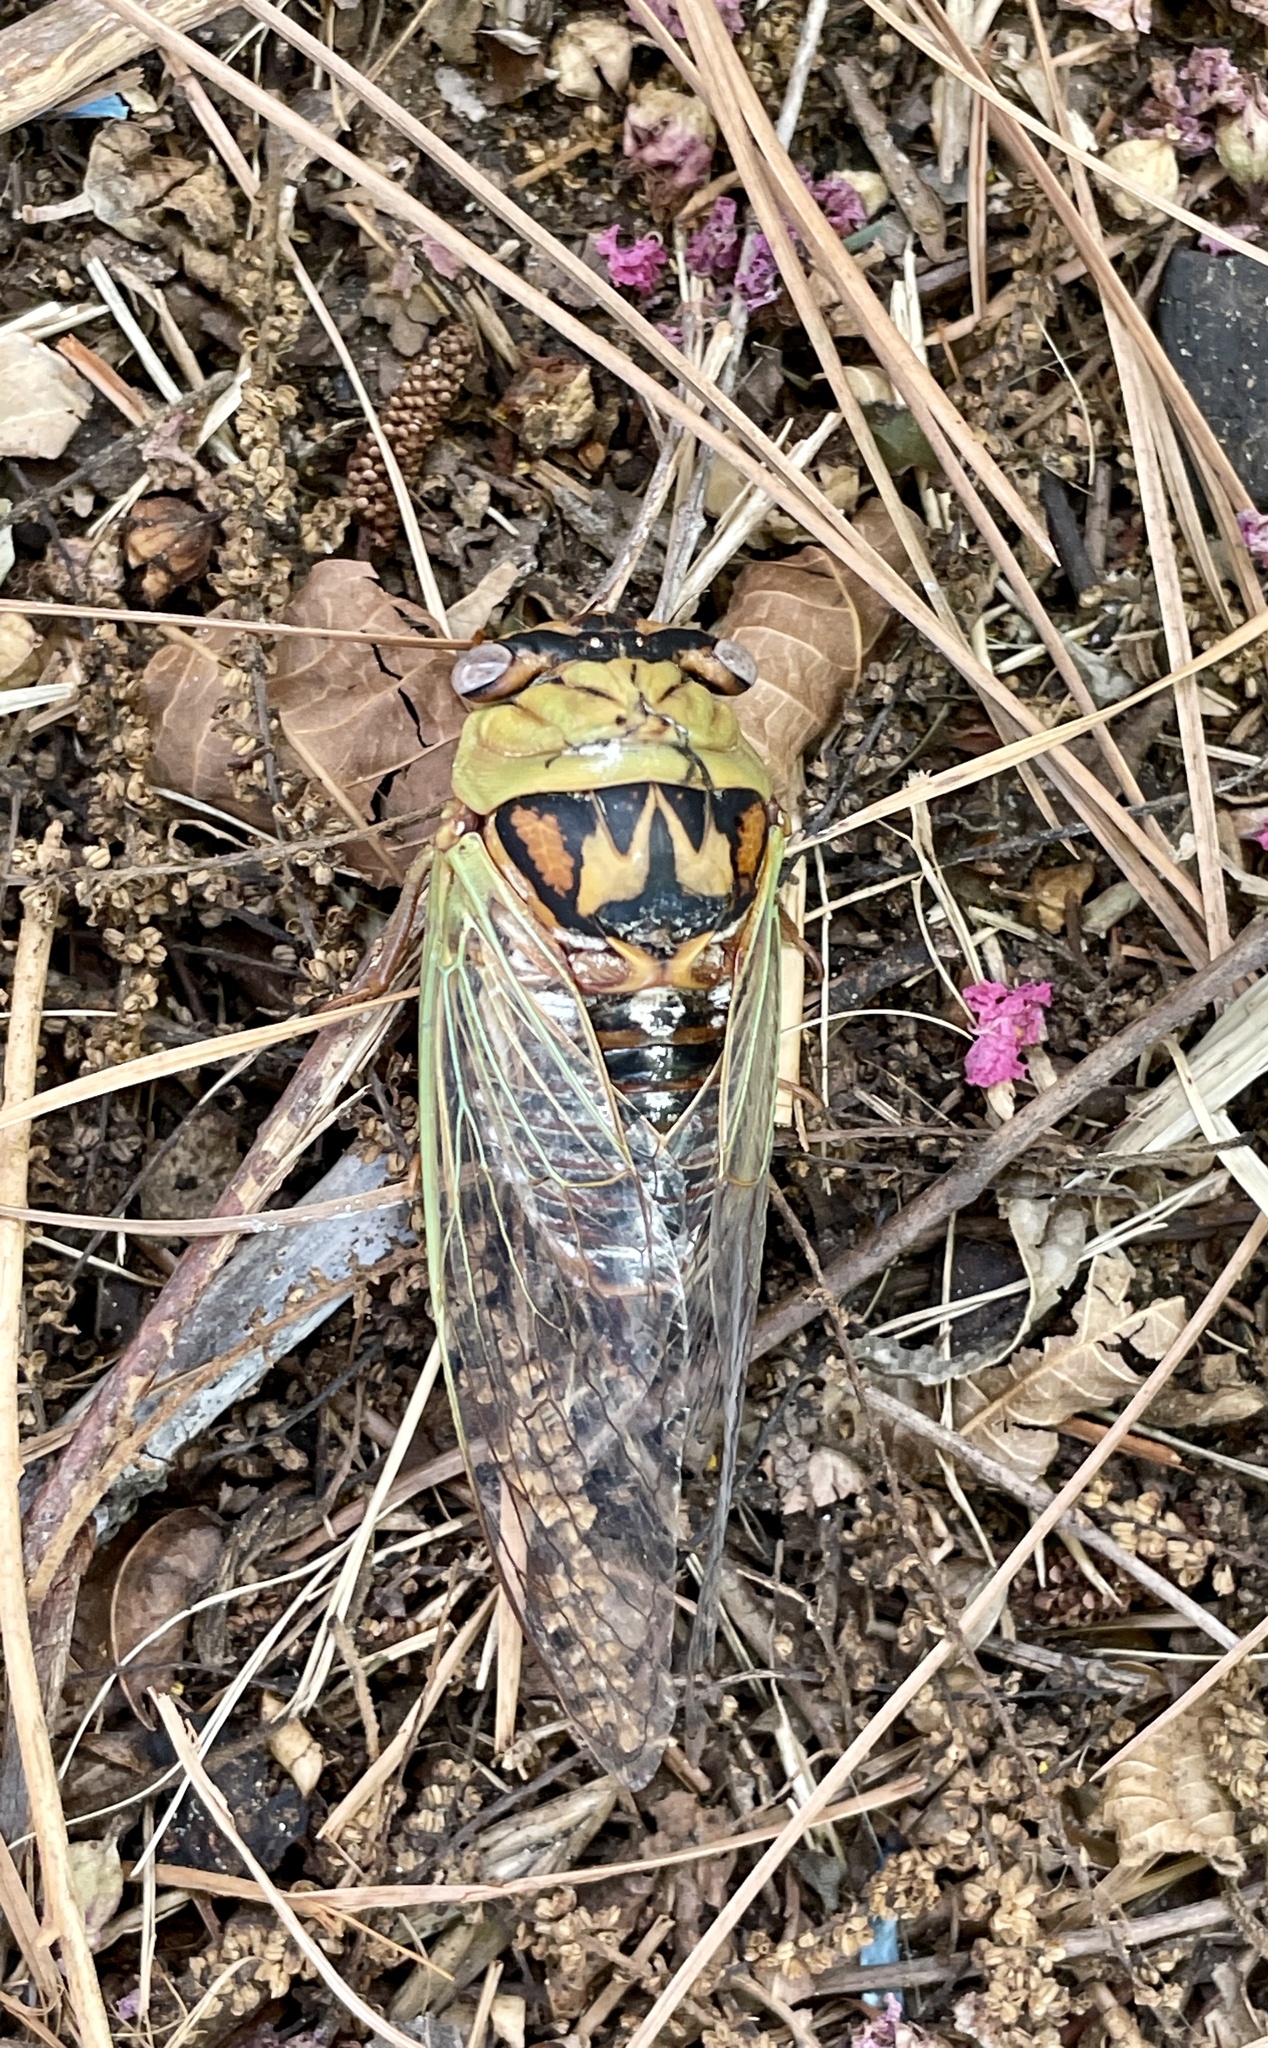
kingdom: Animalia
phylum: Arthropoda
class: Insecta
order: Hemiptera
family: Cicadidae
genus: Megatibicen
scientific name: Megatibicen pronotalis
